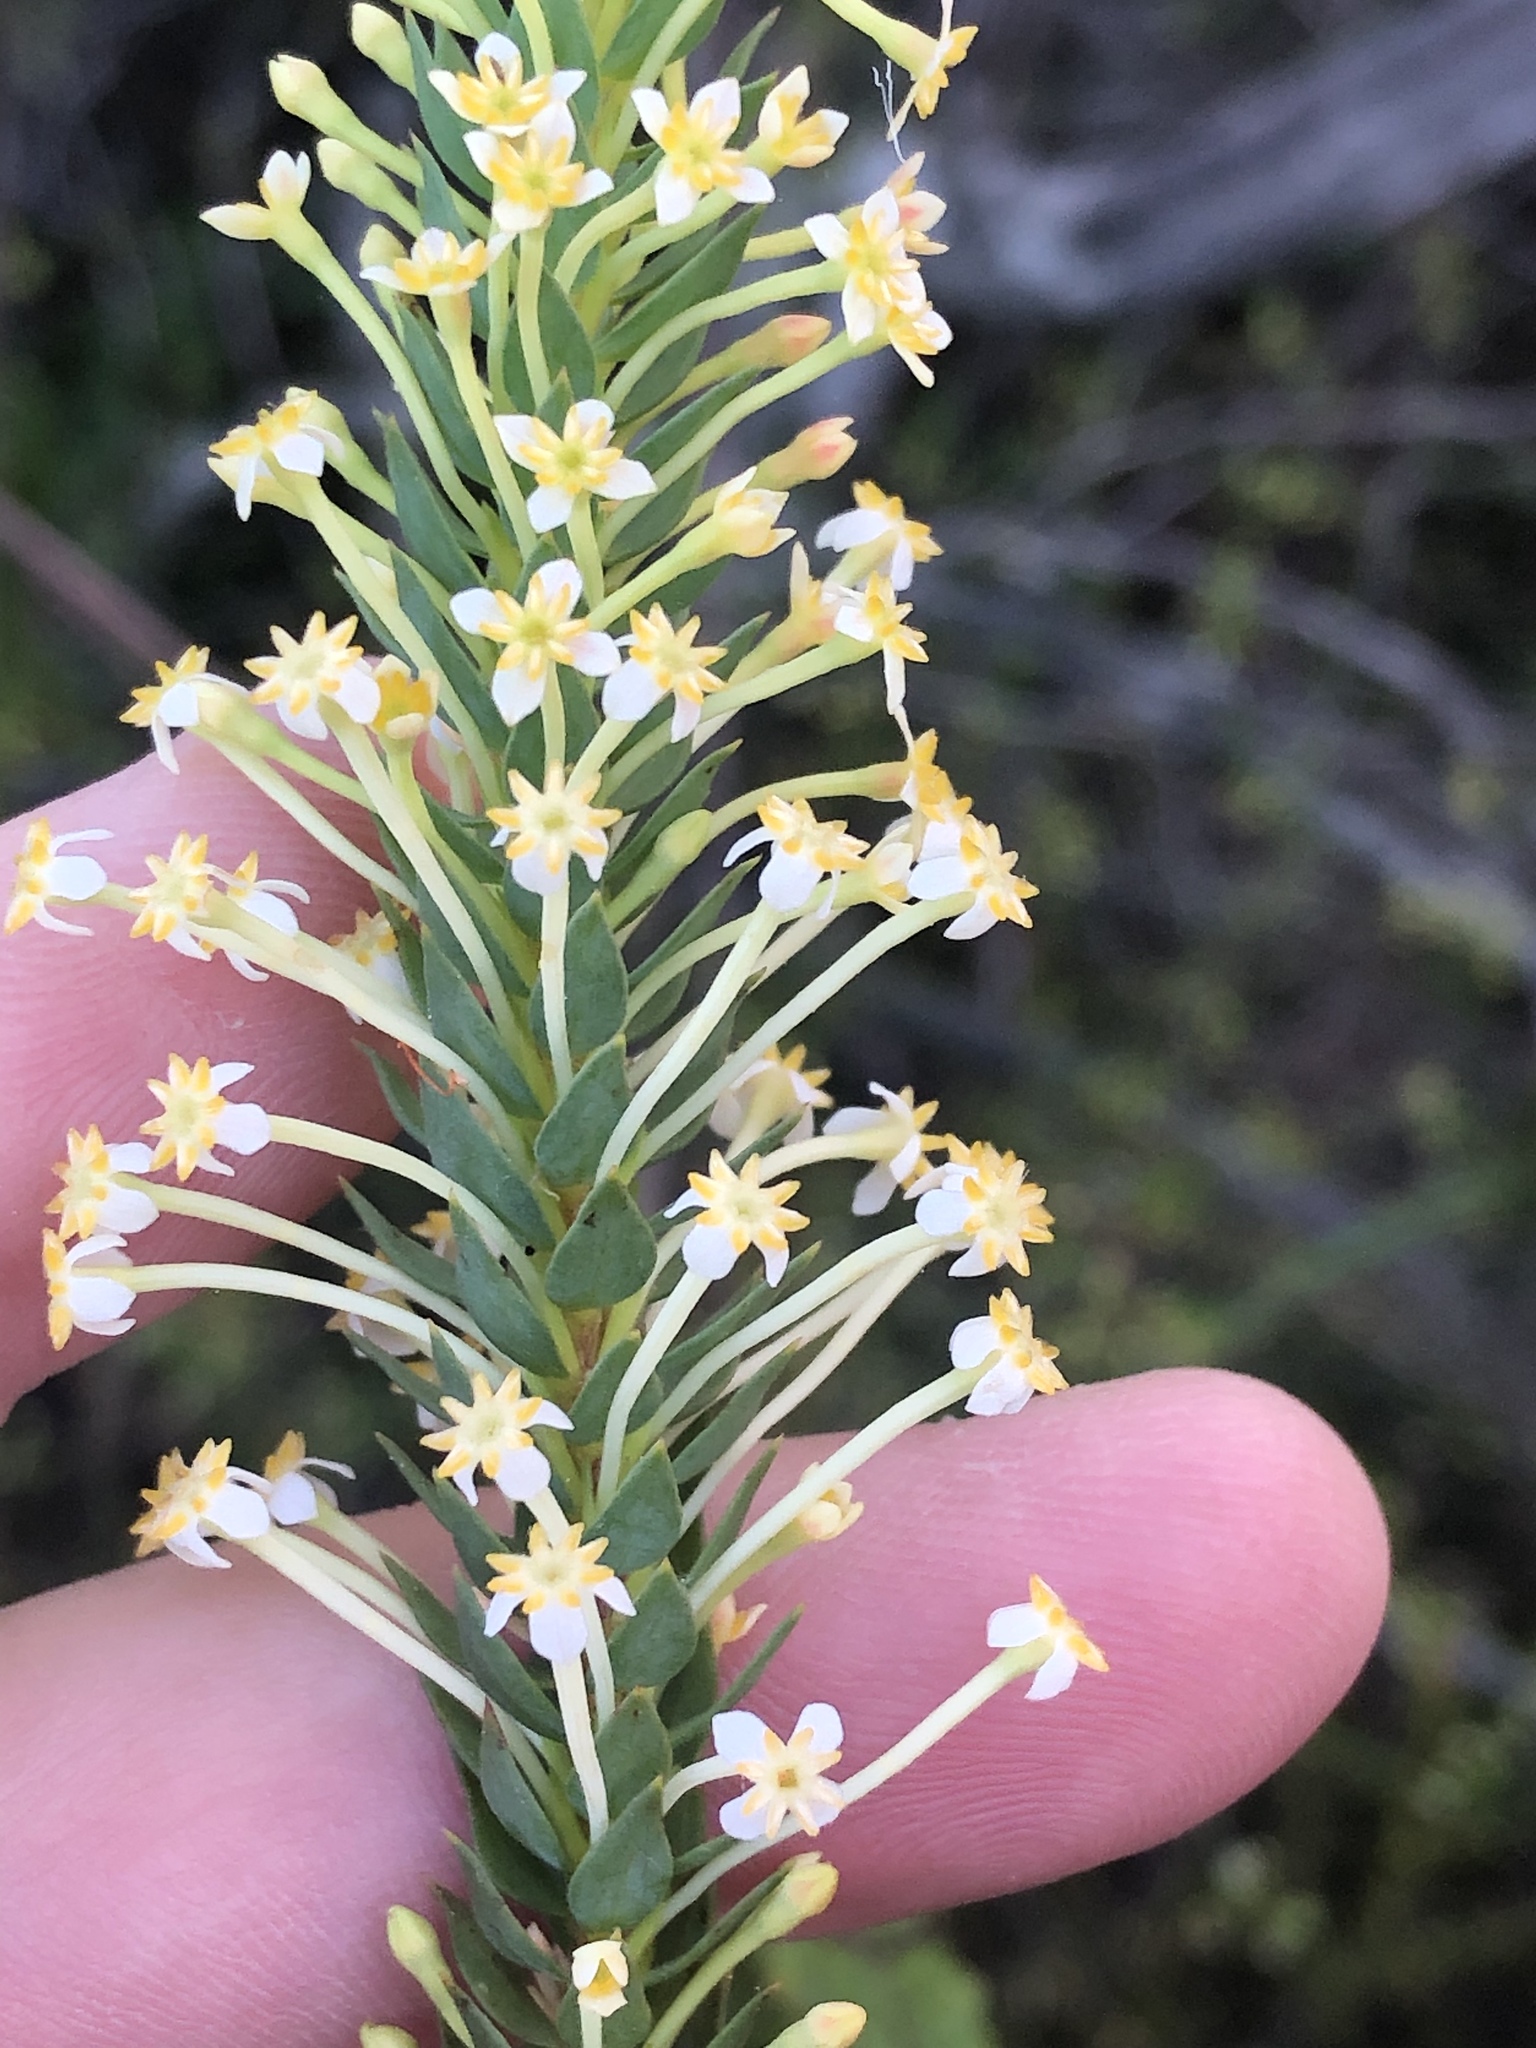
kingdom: Plantae
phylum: Tracheophyta
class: Magnoliopsida
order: Malvales
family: Thymelaeaceae
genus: Struthiola
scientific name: Struthiola hirsuta
